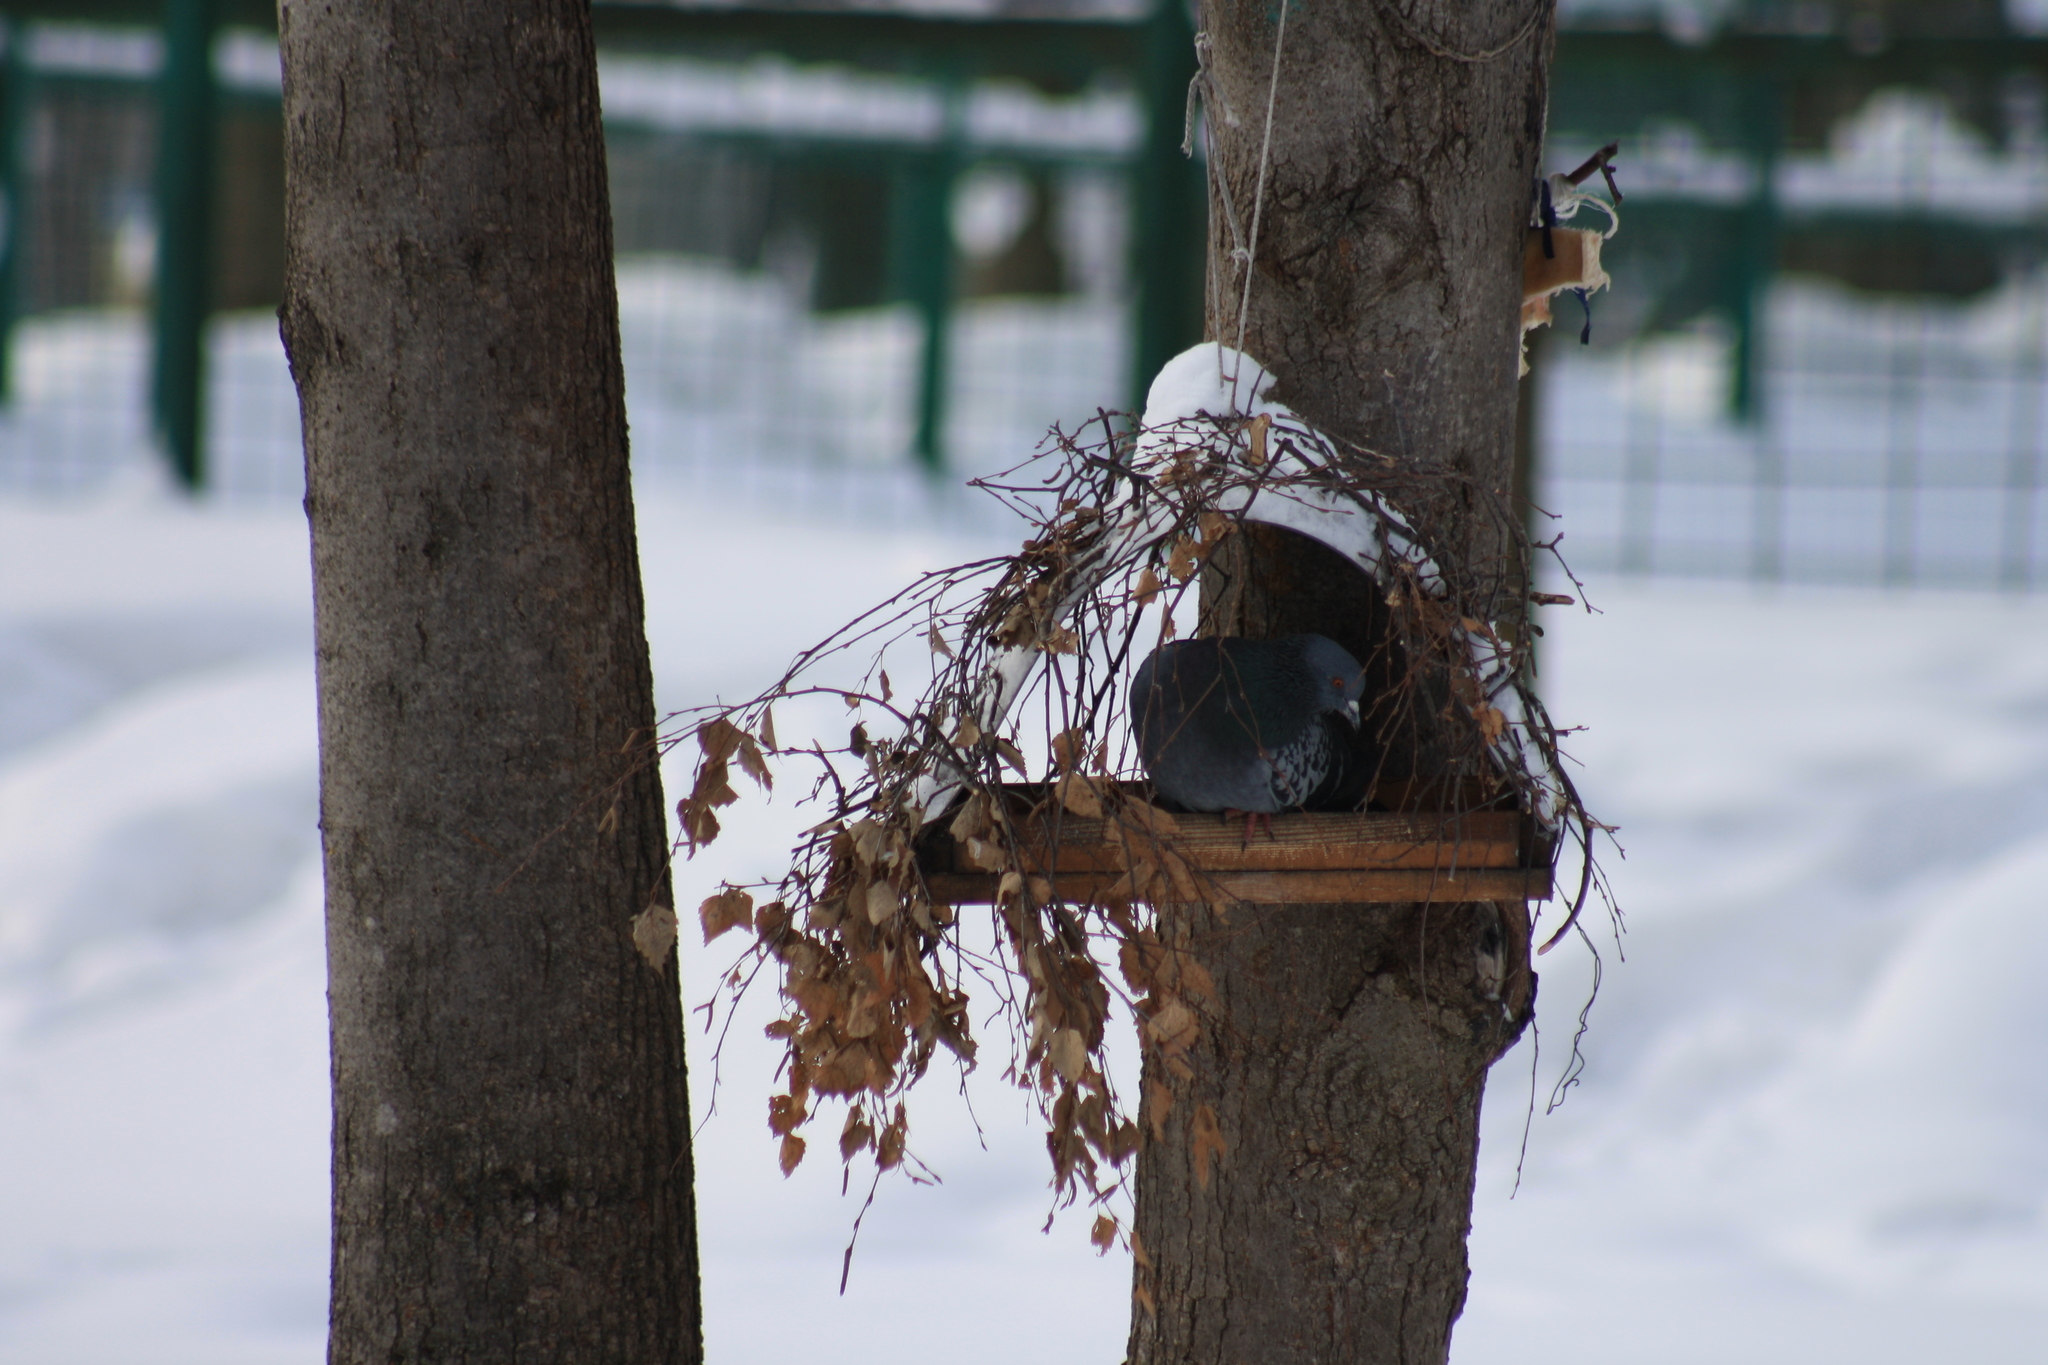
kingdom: Animalia
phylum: Chordata
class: Aves
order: Columbiformes
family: Columbidae
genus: Columba
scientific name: Columba livia
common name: Rock pigeon
